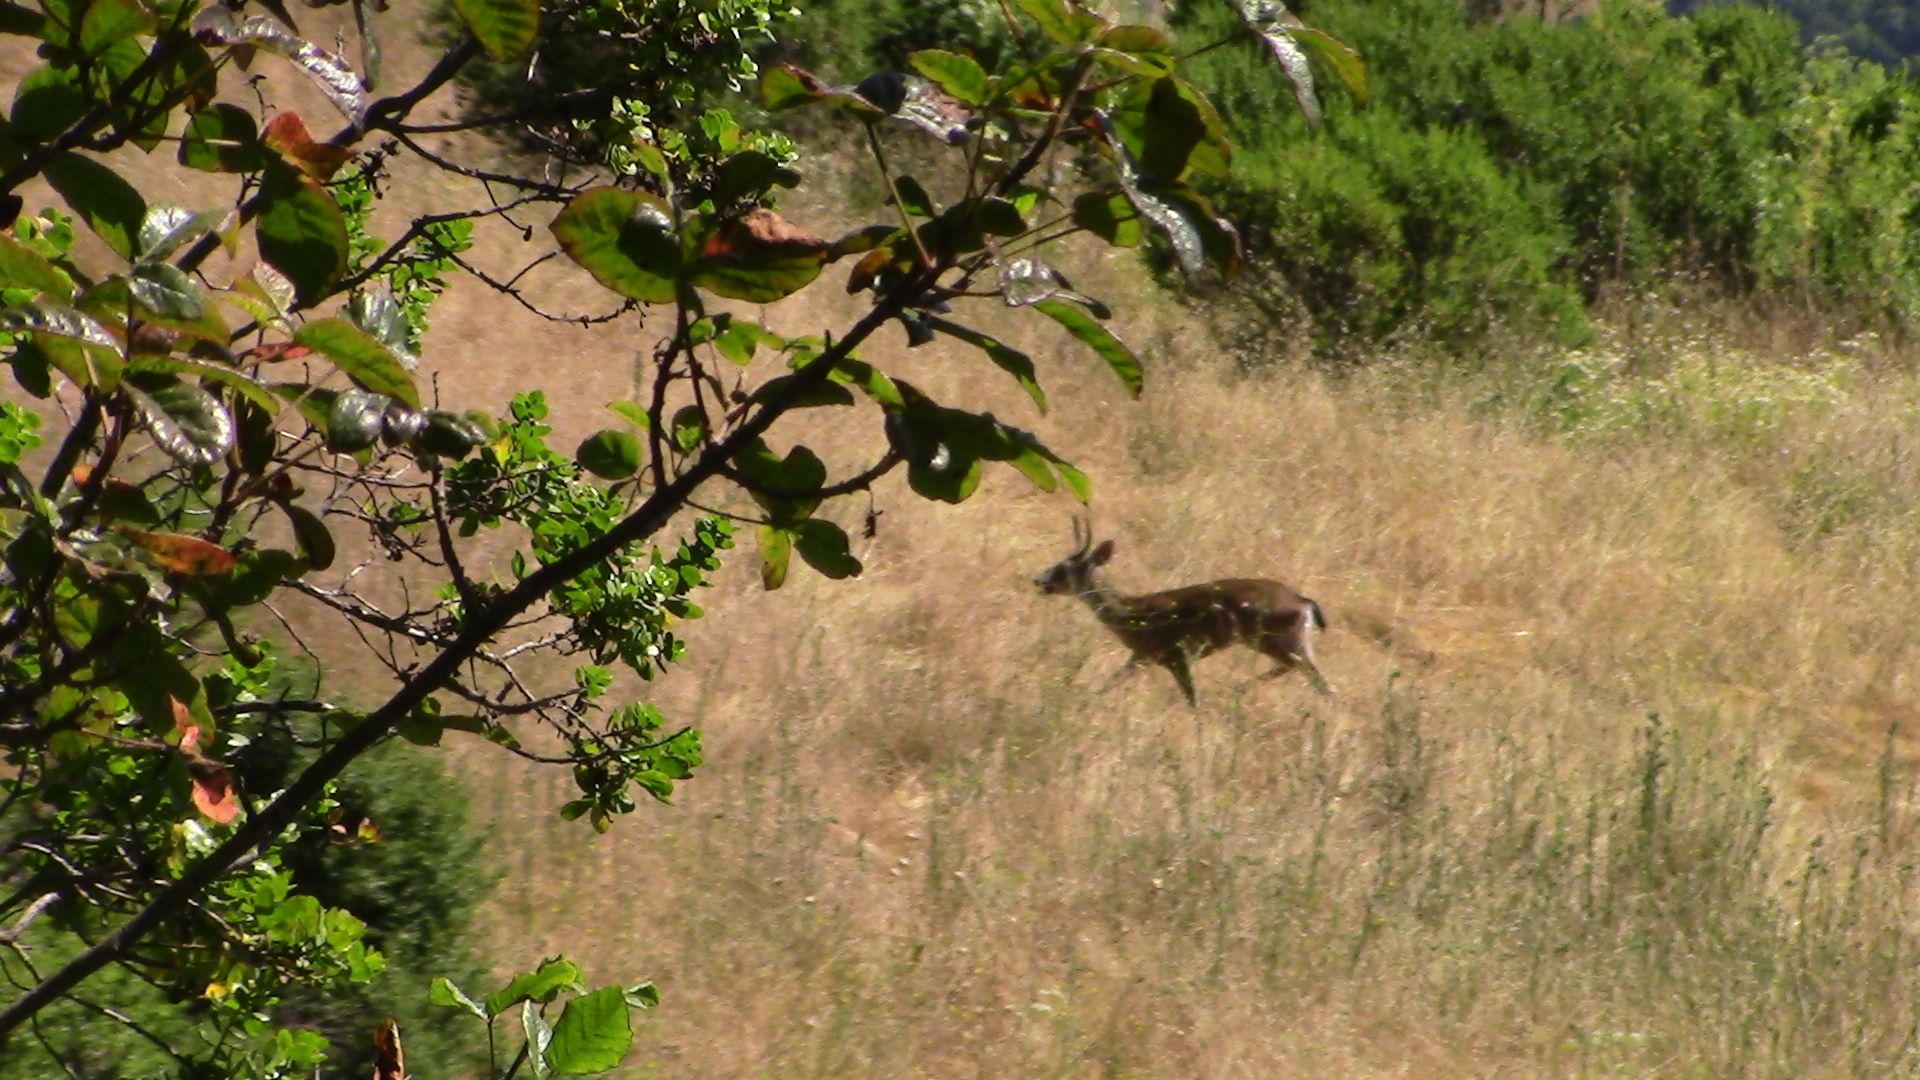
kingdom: Animalia
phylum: Chordata
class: Mammalia
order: Artiodactyla
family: Cervidae
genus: Odocoileus
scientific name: Odocoileus hemionus
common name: Mule deer
